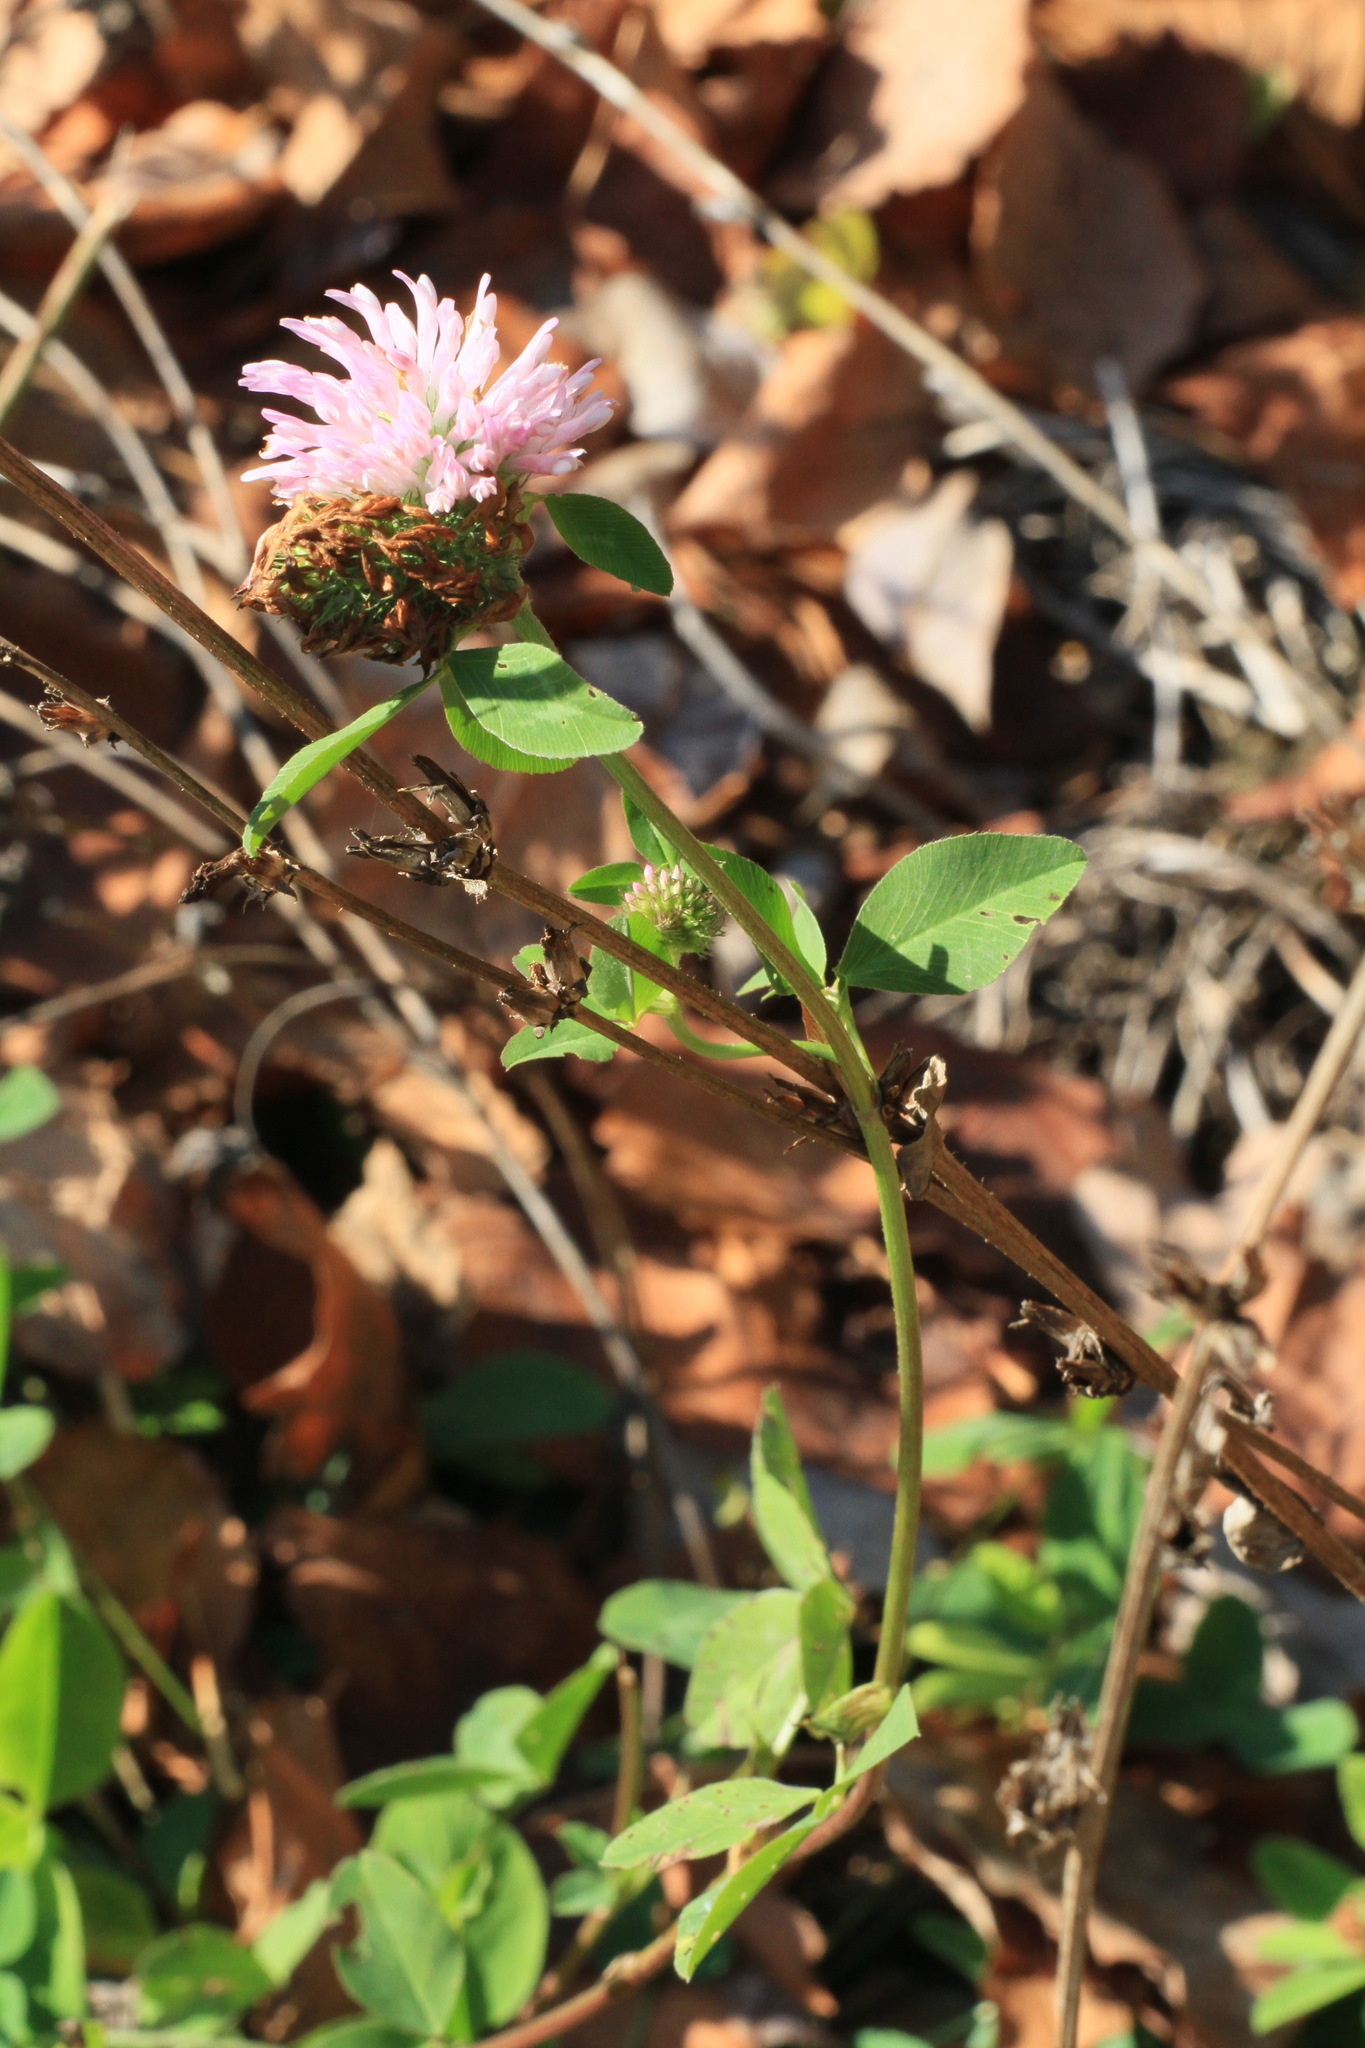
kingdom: Plantae
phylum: Tracheophyta
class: Magnoliopsida
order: Fabales
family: Fabaceae
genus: Trifolium
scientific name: Trifolium pratense
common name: Red clover
